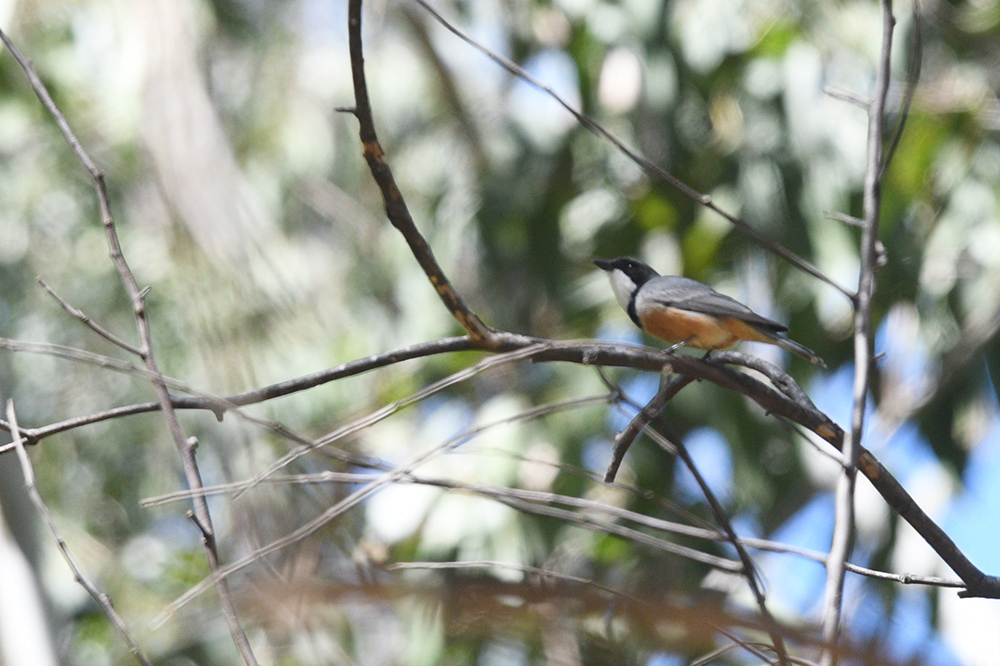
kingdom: Animalia
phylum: Chordata
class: Aves
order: Passeriformes
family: Pachycephalidae
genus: Pachycephala
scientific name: Pachycephala rufiventris
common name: Rufous whistler
